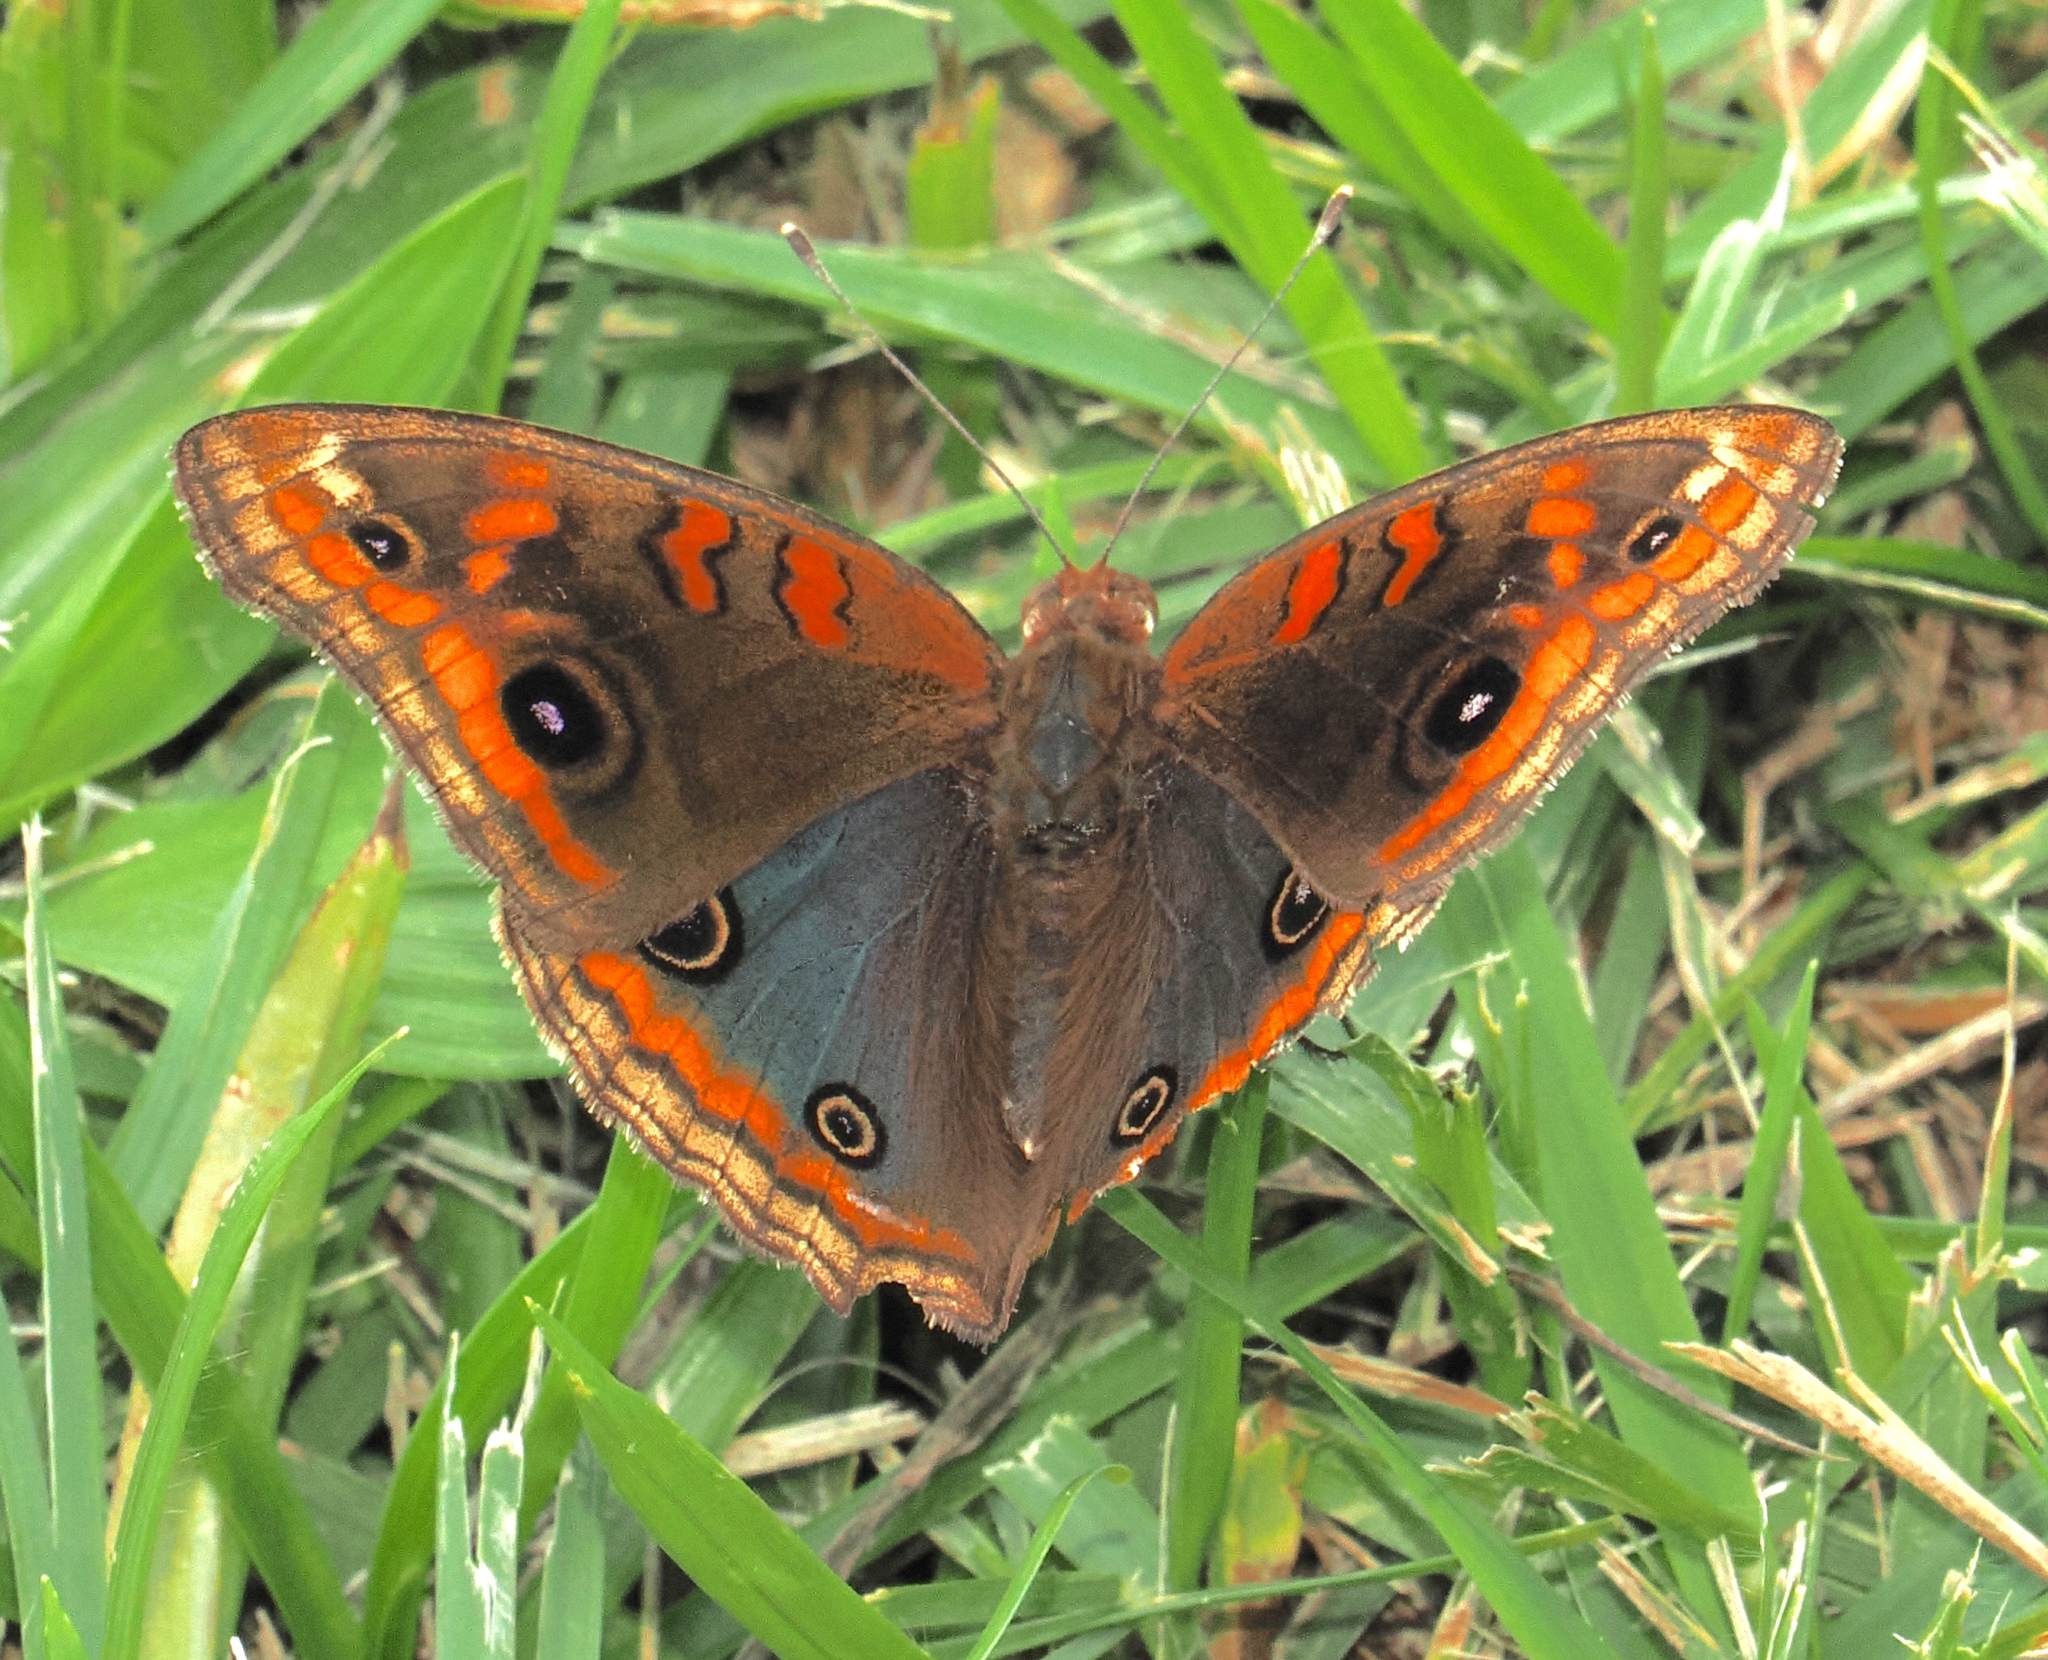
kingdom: Animalia
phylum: Arthropoda
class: Insecta
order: Lepidoptera
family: Nymphalidae
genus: Junonia
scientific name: Junonia evarete
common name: Black mangrove buckeye
